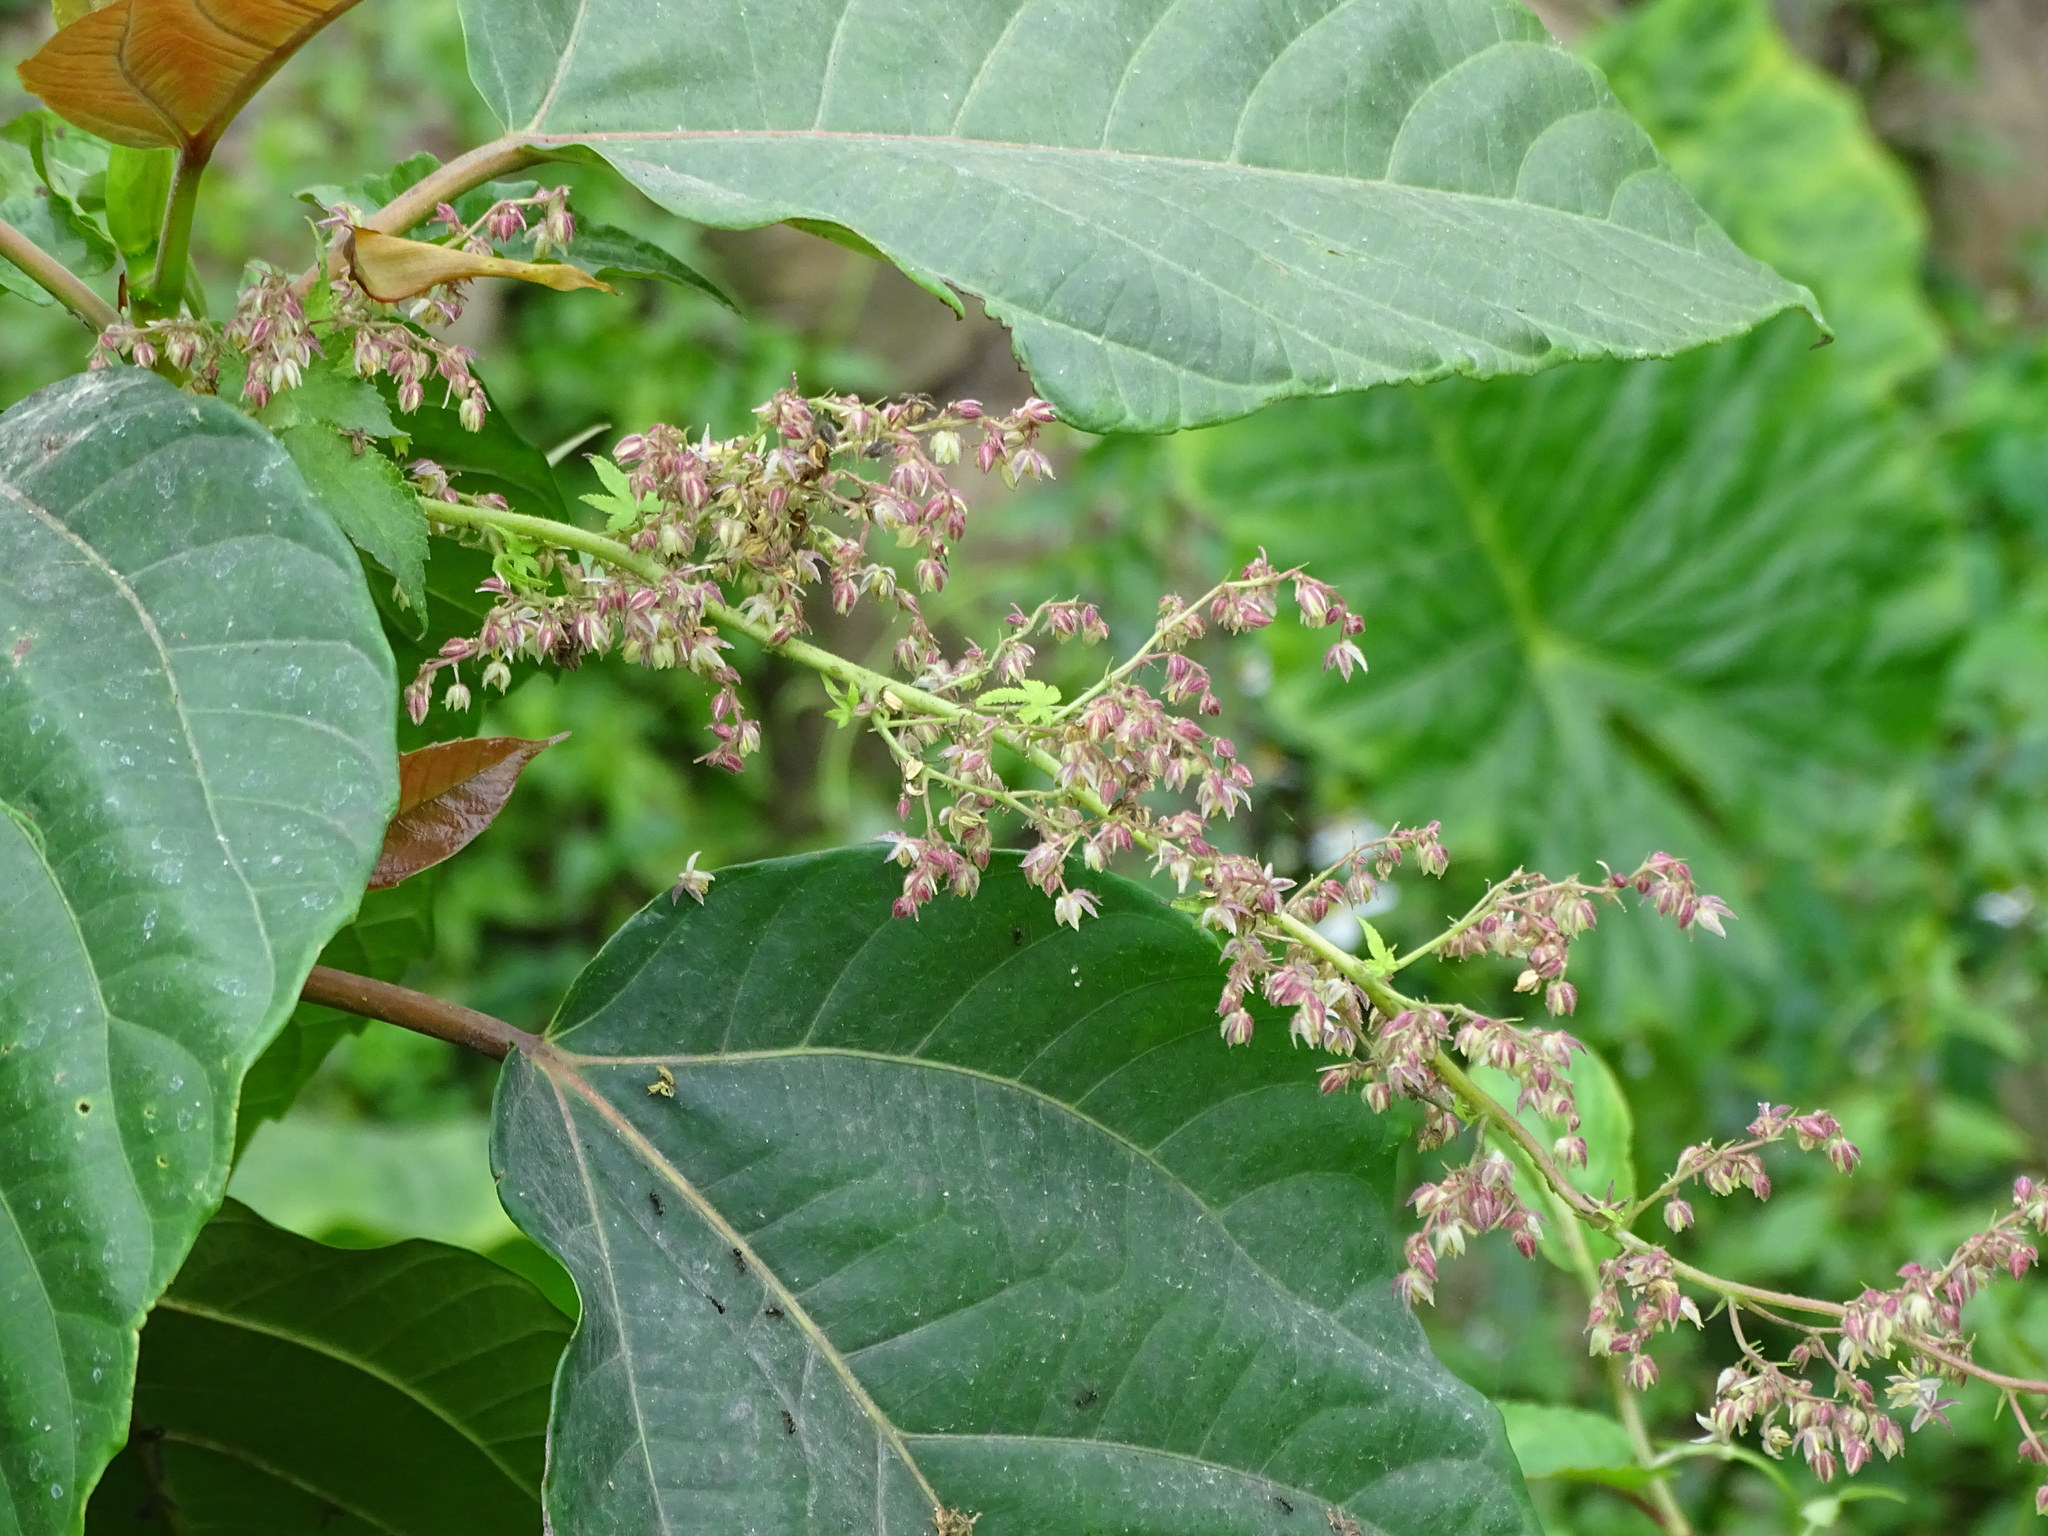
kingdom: Plantae
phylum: Tracheophyta
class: Magnoliopsida
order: Rosales
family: Cannabaceae
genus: Humulus
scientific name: Humulus scandens
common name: Japanese hop
